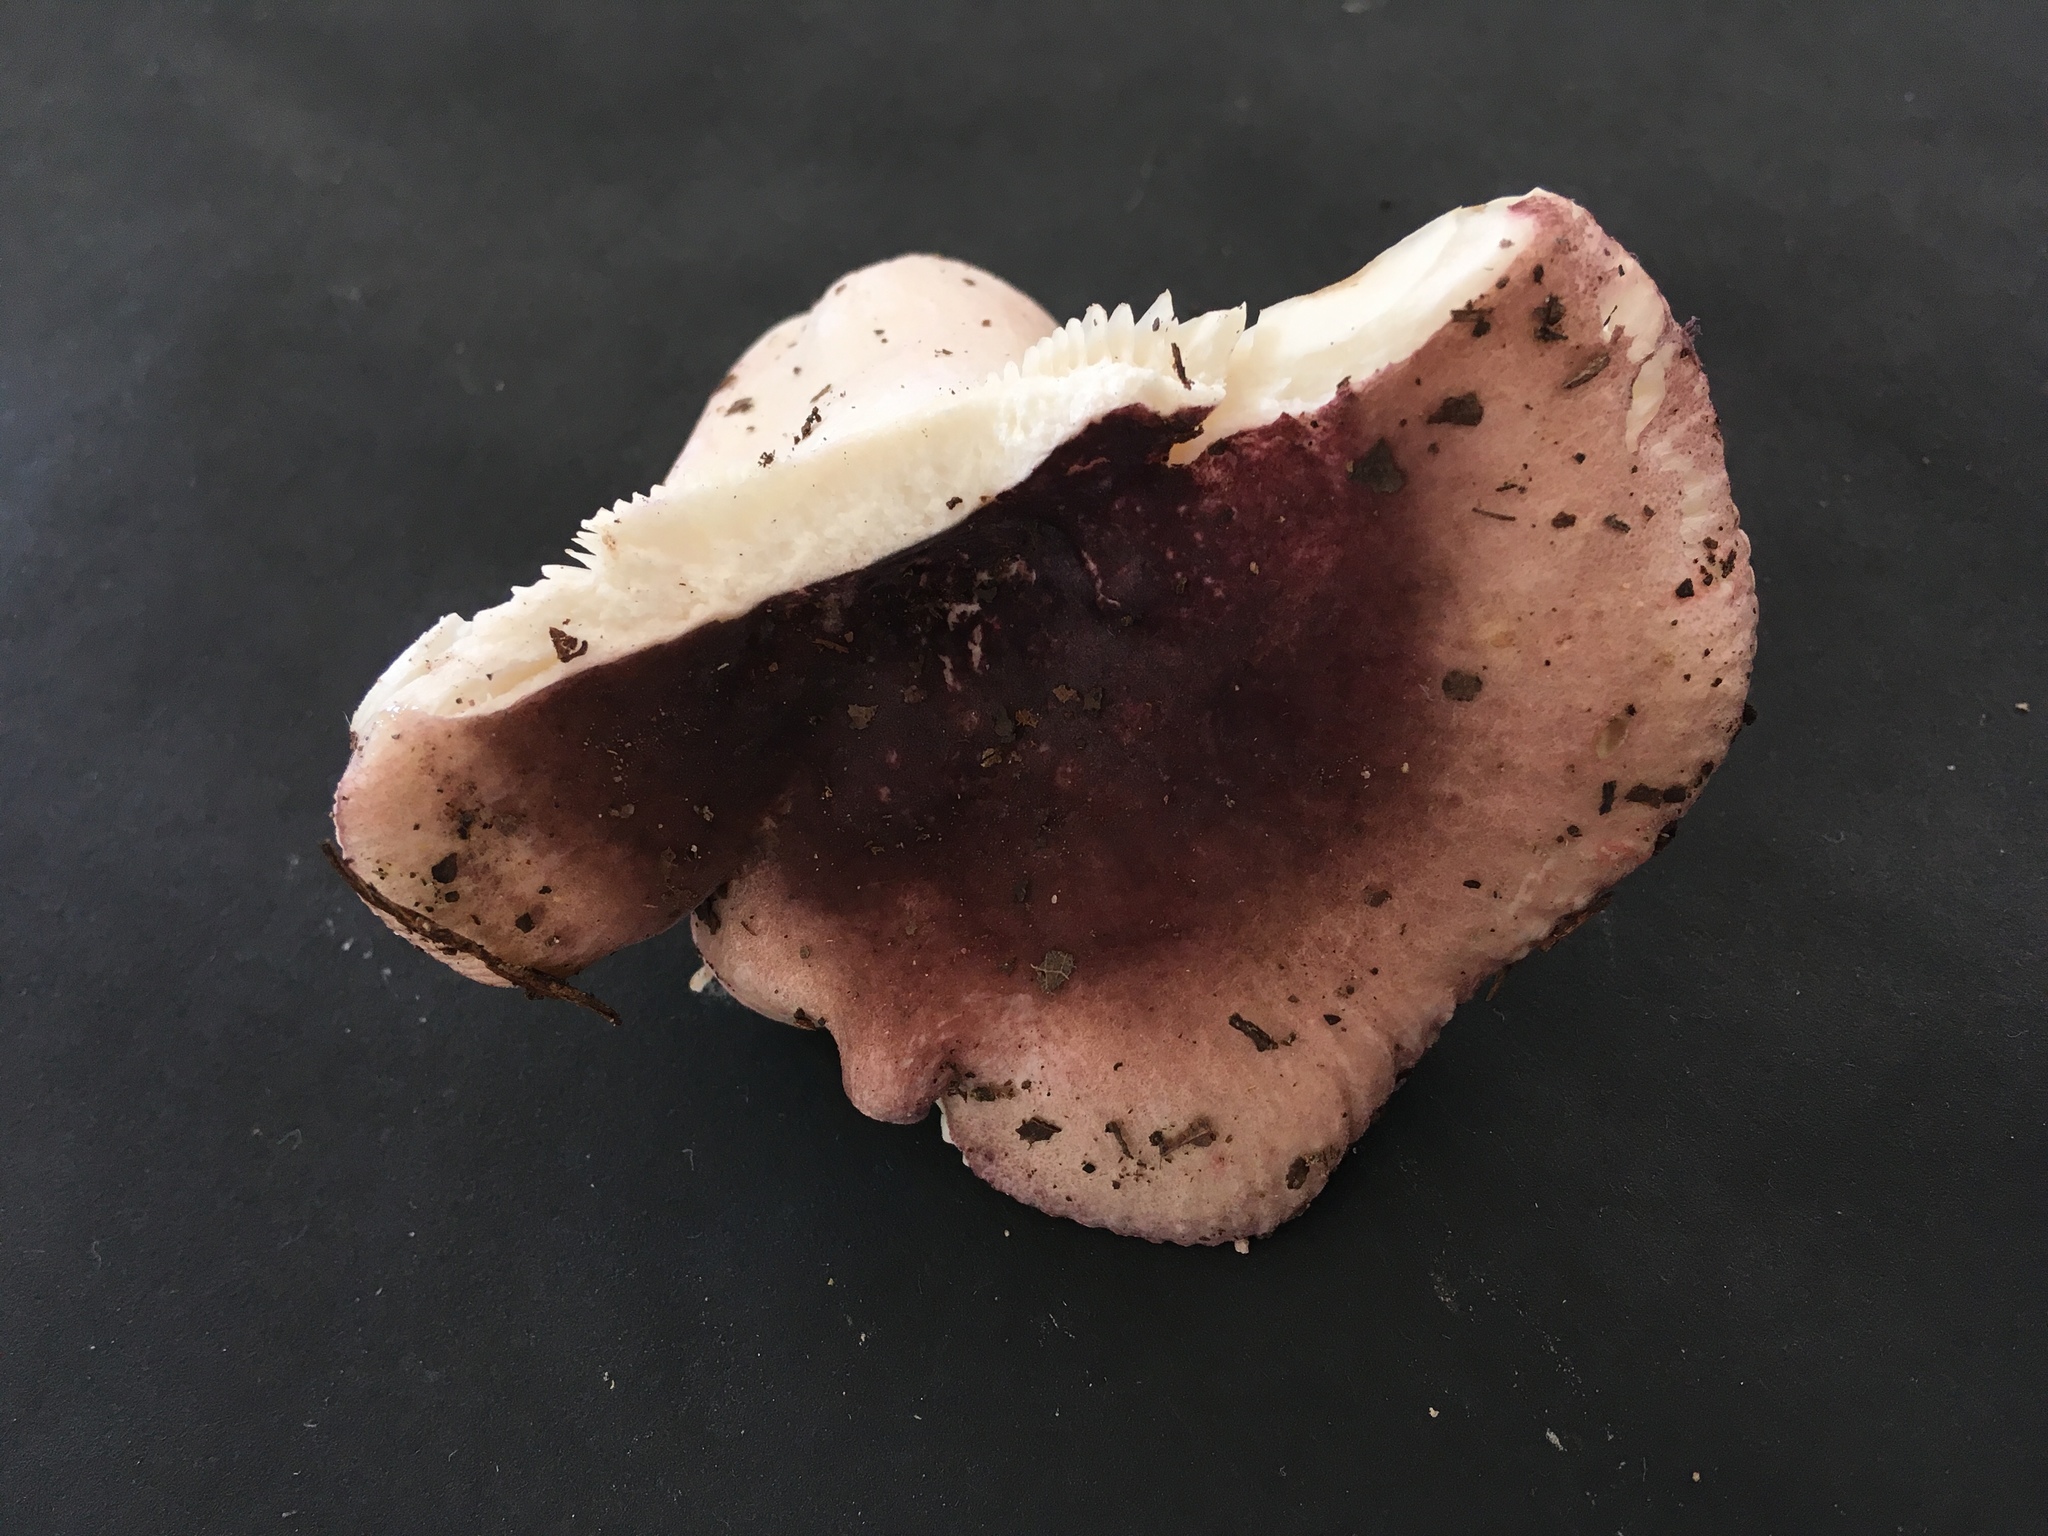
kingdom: Fungi
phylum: Basidiomycota
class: Agaricomycetes
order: Russulales
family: Russulaceae
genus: Russula
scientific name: Russula ornaticeps
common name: Purple cap russula
